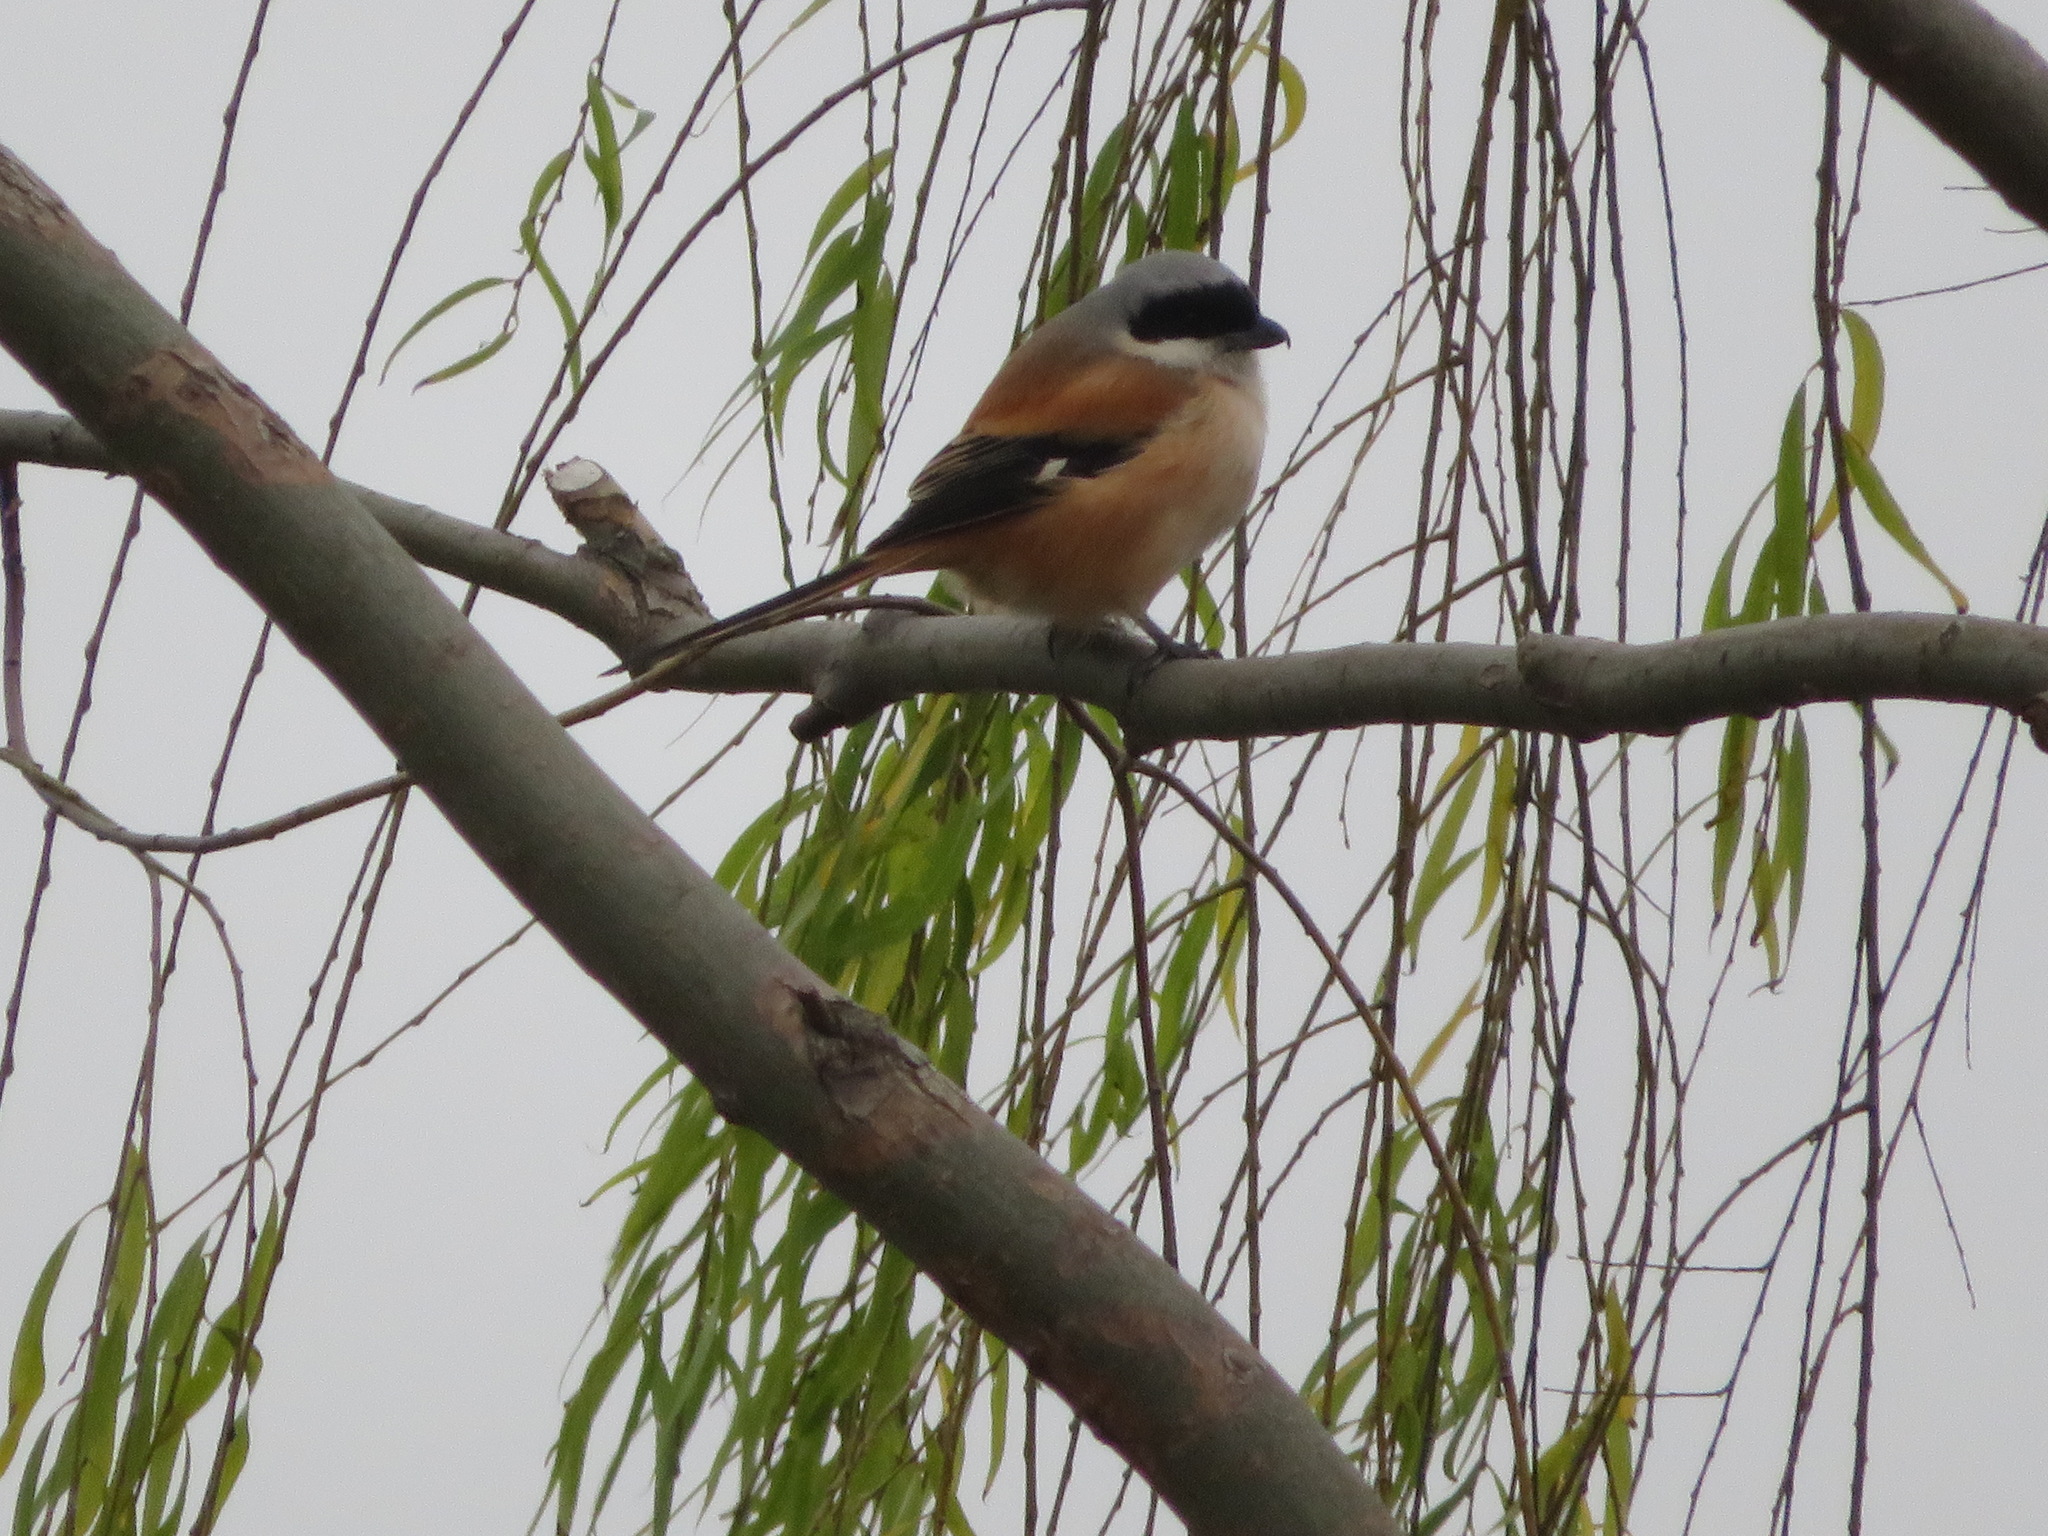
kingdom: Animalia
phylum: Chordata
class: Aves
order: Passeriformes
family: Laniidae
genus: Lanius
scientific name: Lanius schach
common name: Long-tailed shrike
